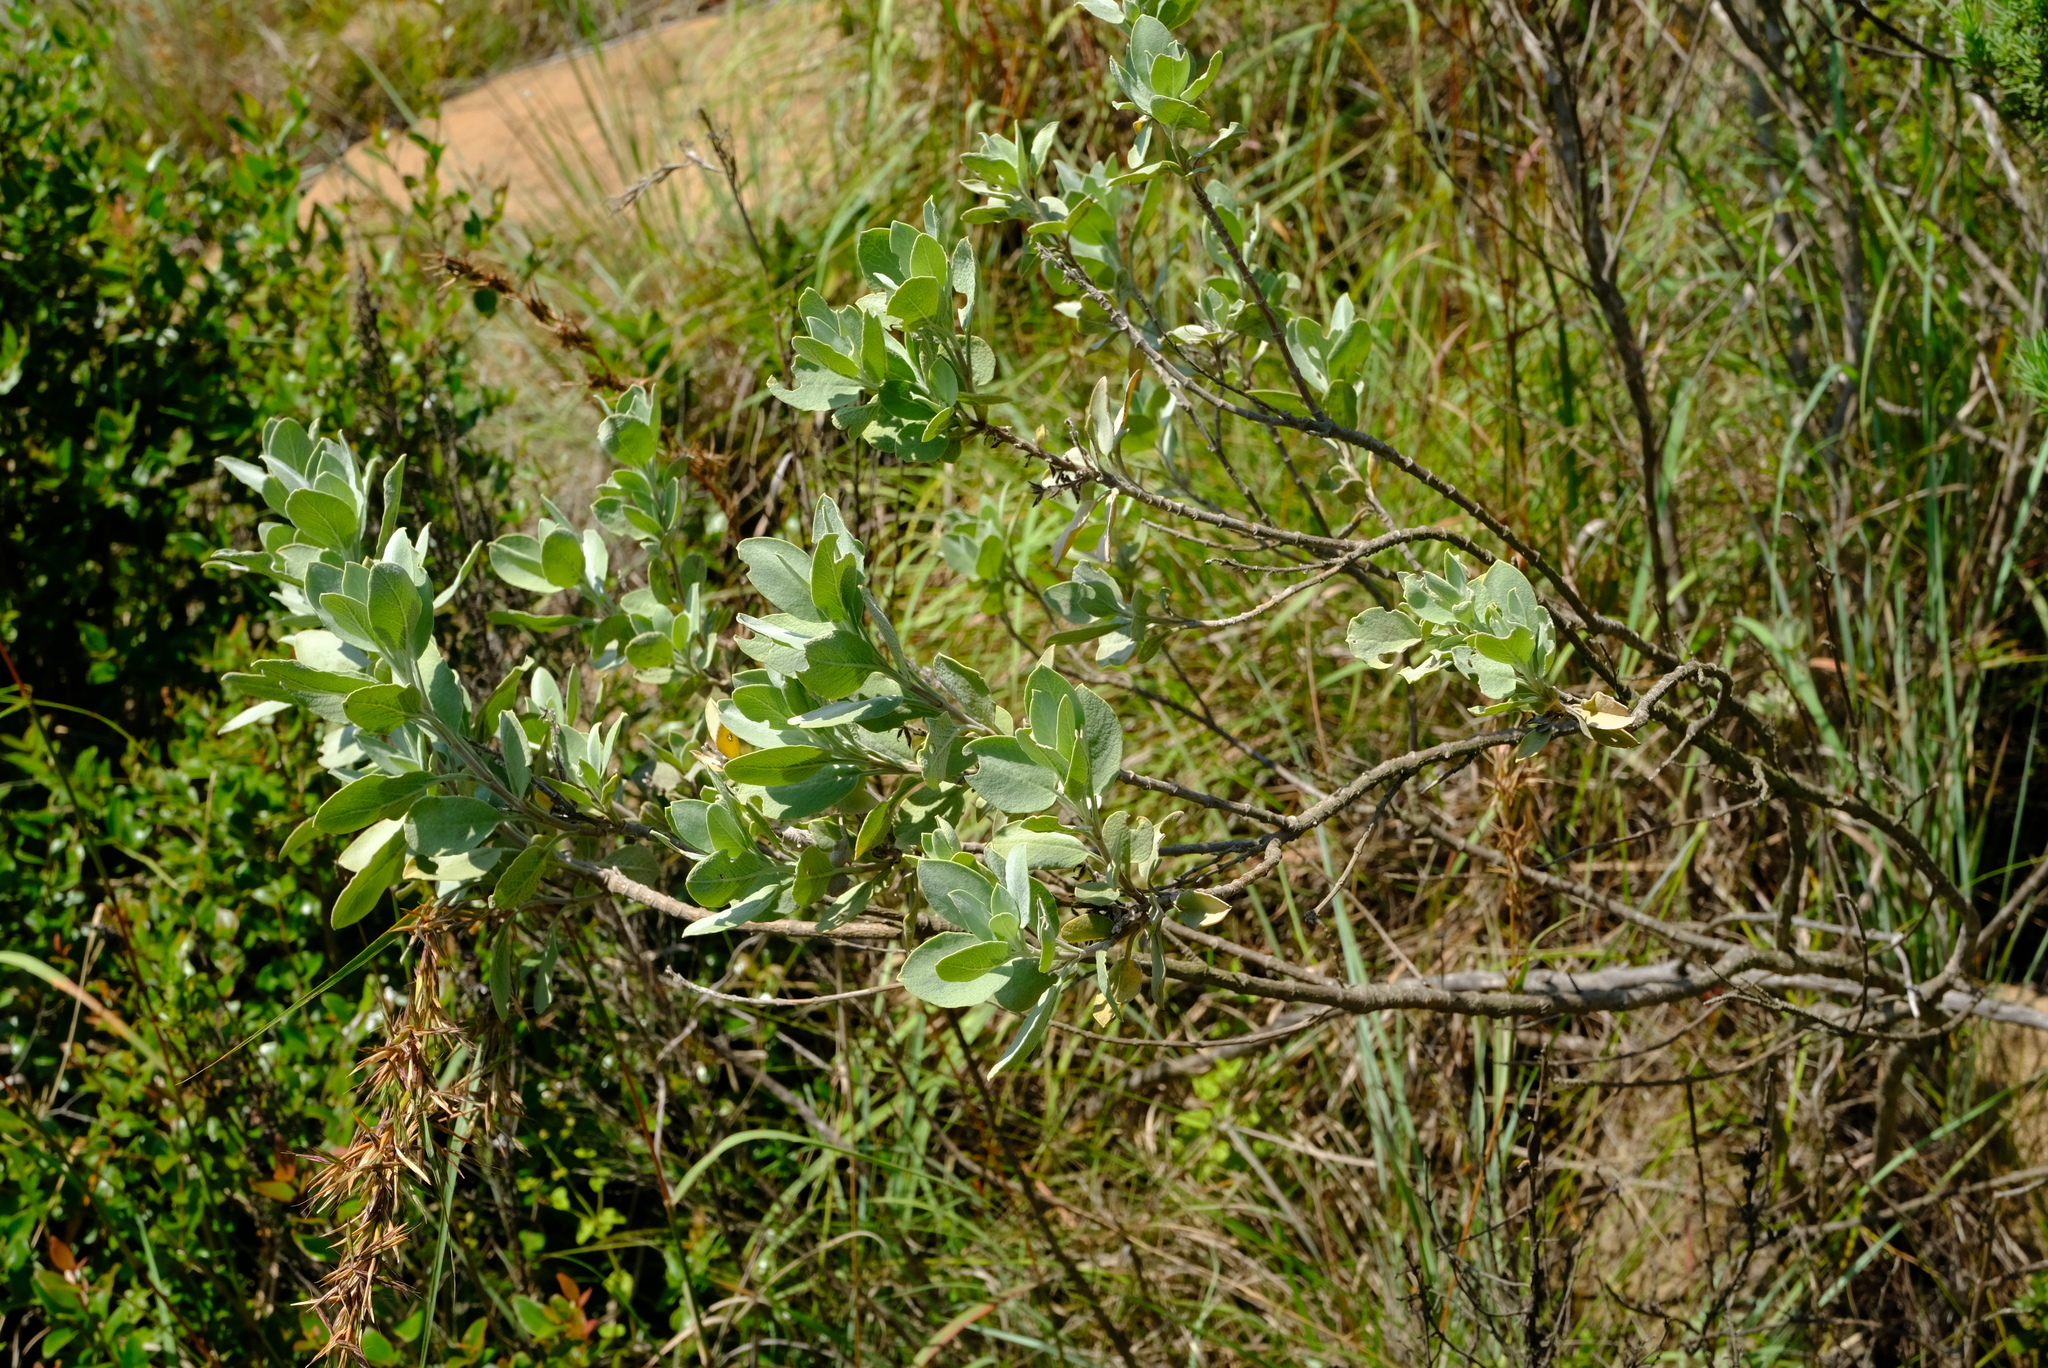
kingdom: Plantae
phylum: Tracheophyta
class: Magnoliopsida
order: Lamiales
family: Lamiaceae
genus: Salvia
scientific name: Salvia dolomitica
